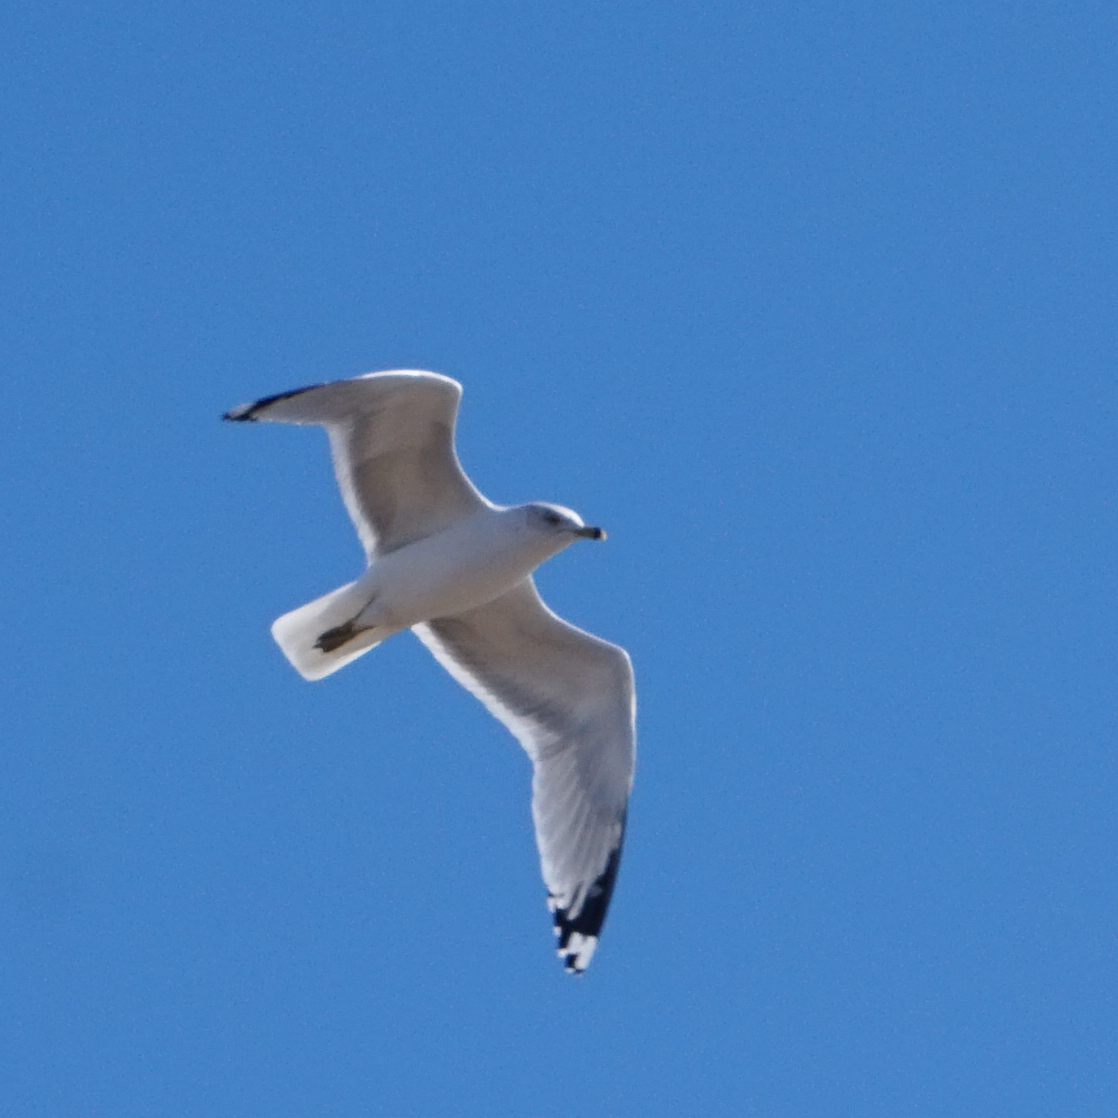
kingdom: Animalia
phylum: Chordata
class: Aves
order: Charadriiformes
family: Laridae
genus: Larus
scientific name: Larus delawarensis
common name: Ring-billed gull
